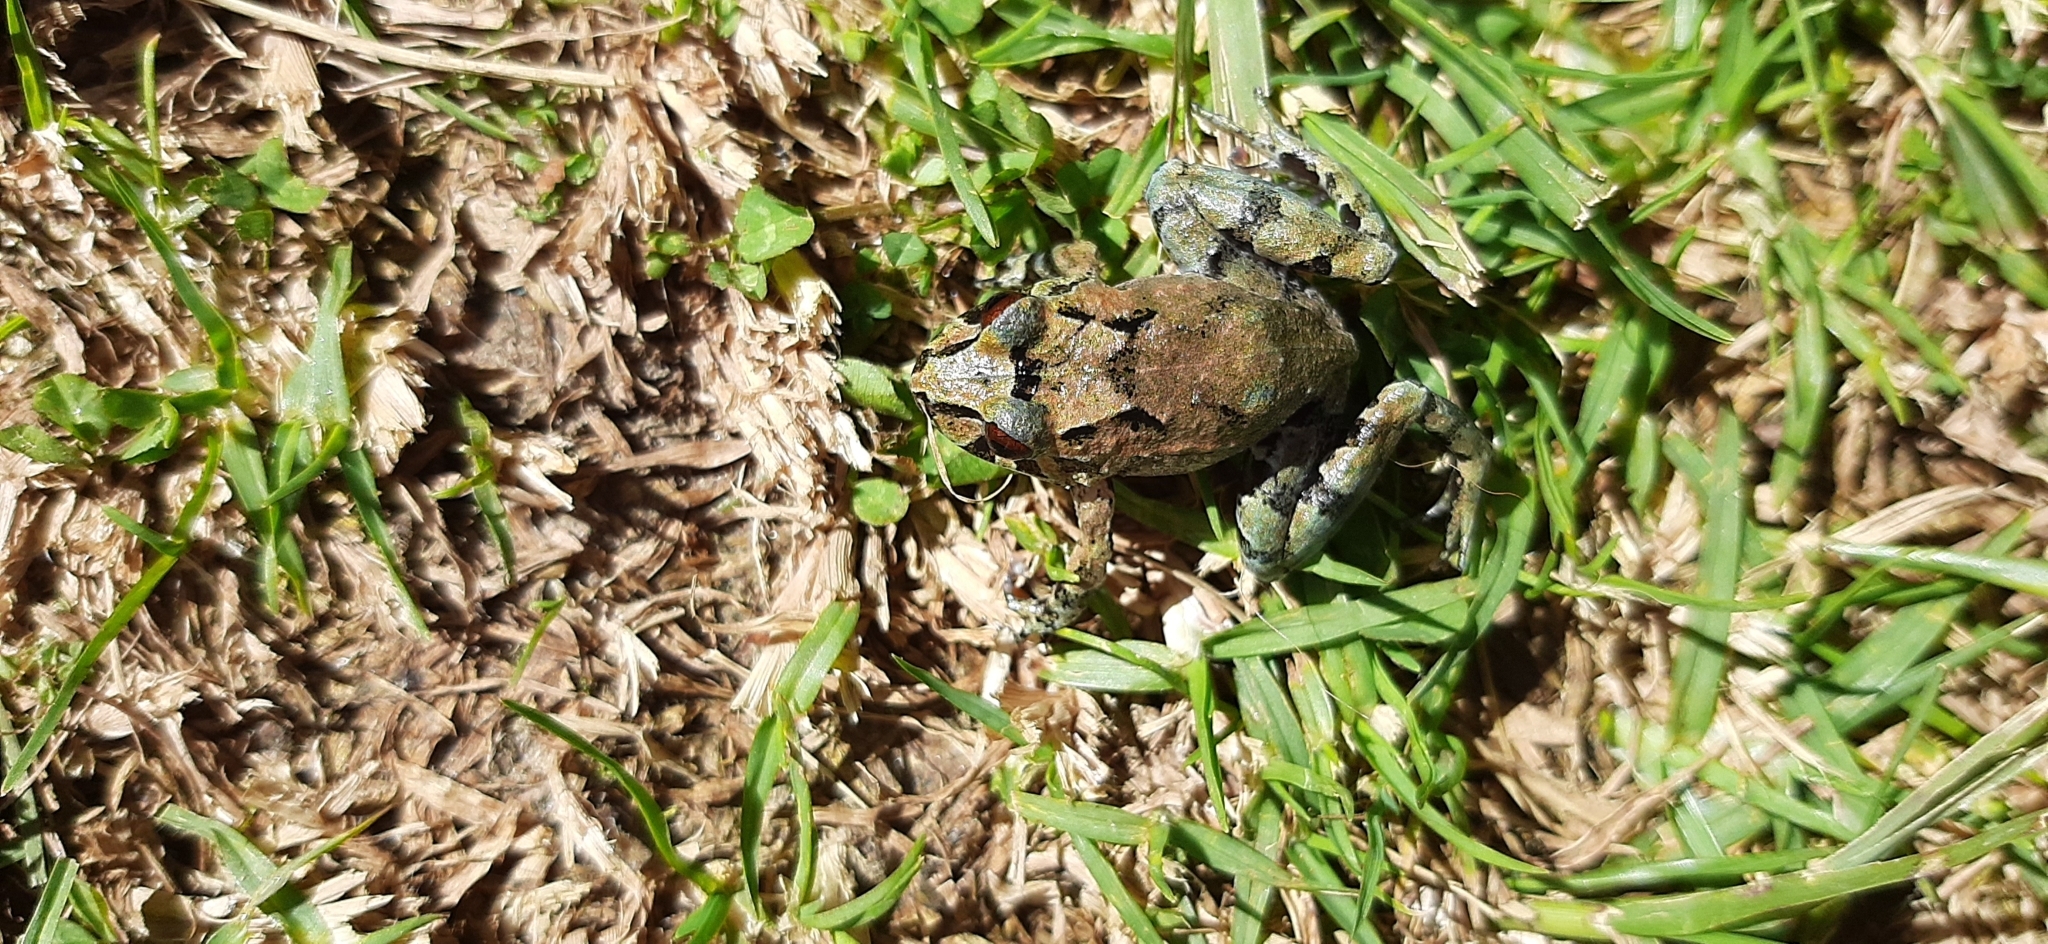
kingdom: Animalia
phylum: Chordata
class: Amphibia
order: Anura
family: Craugastoridae
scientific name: Craugastoridae
